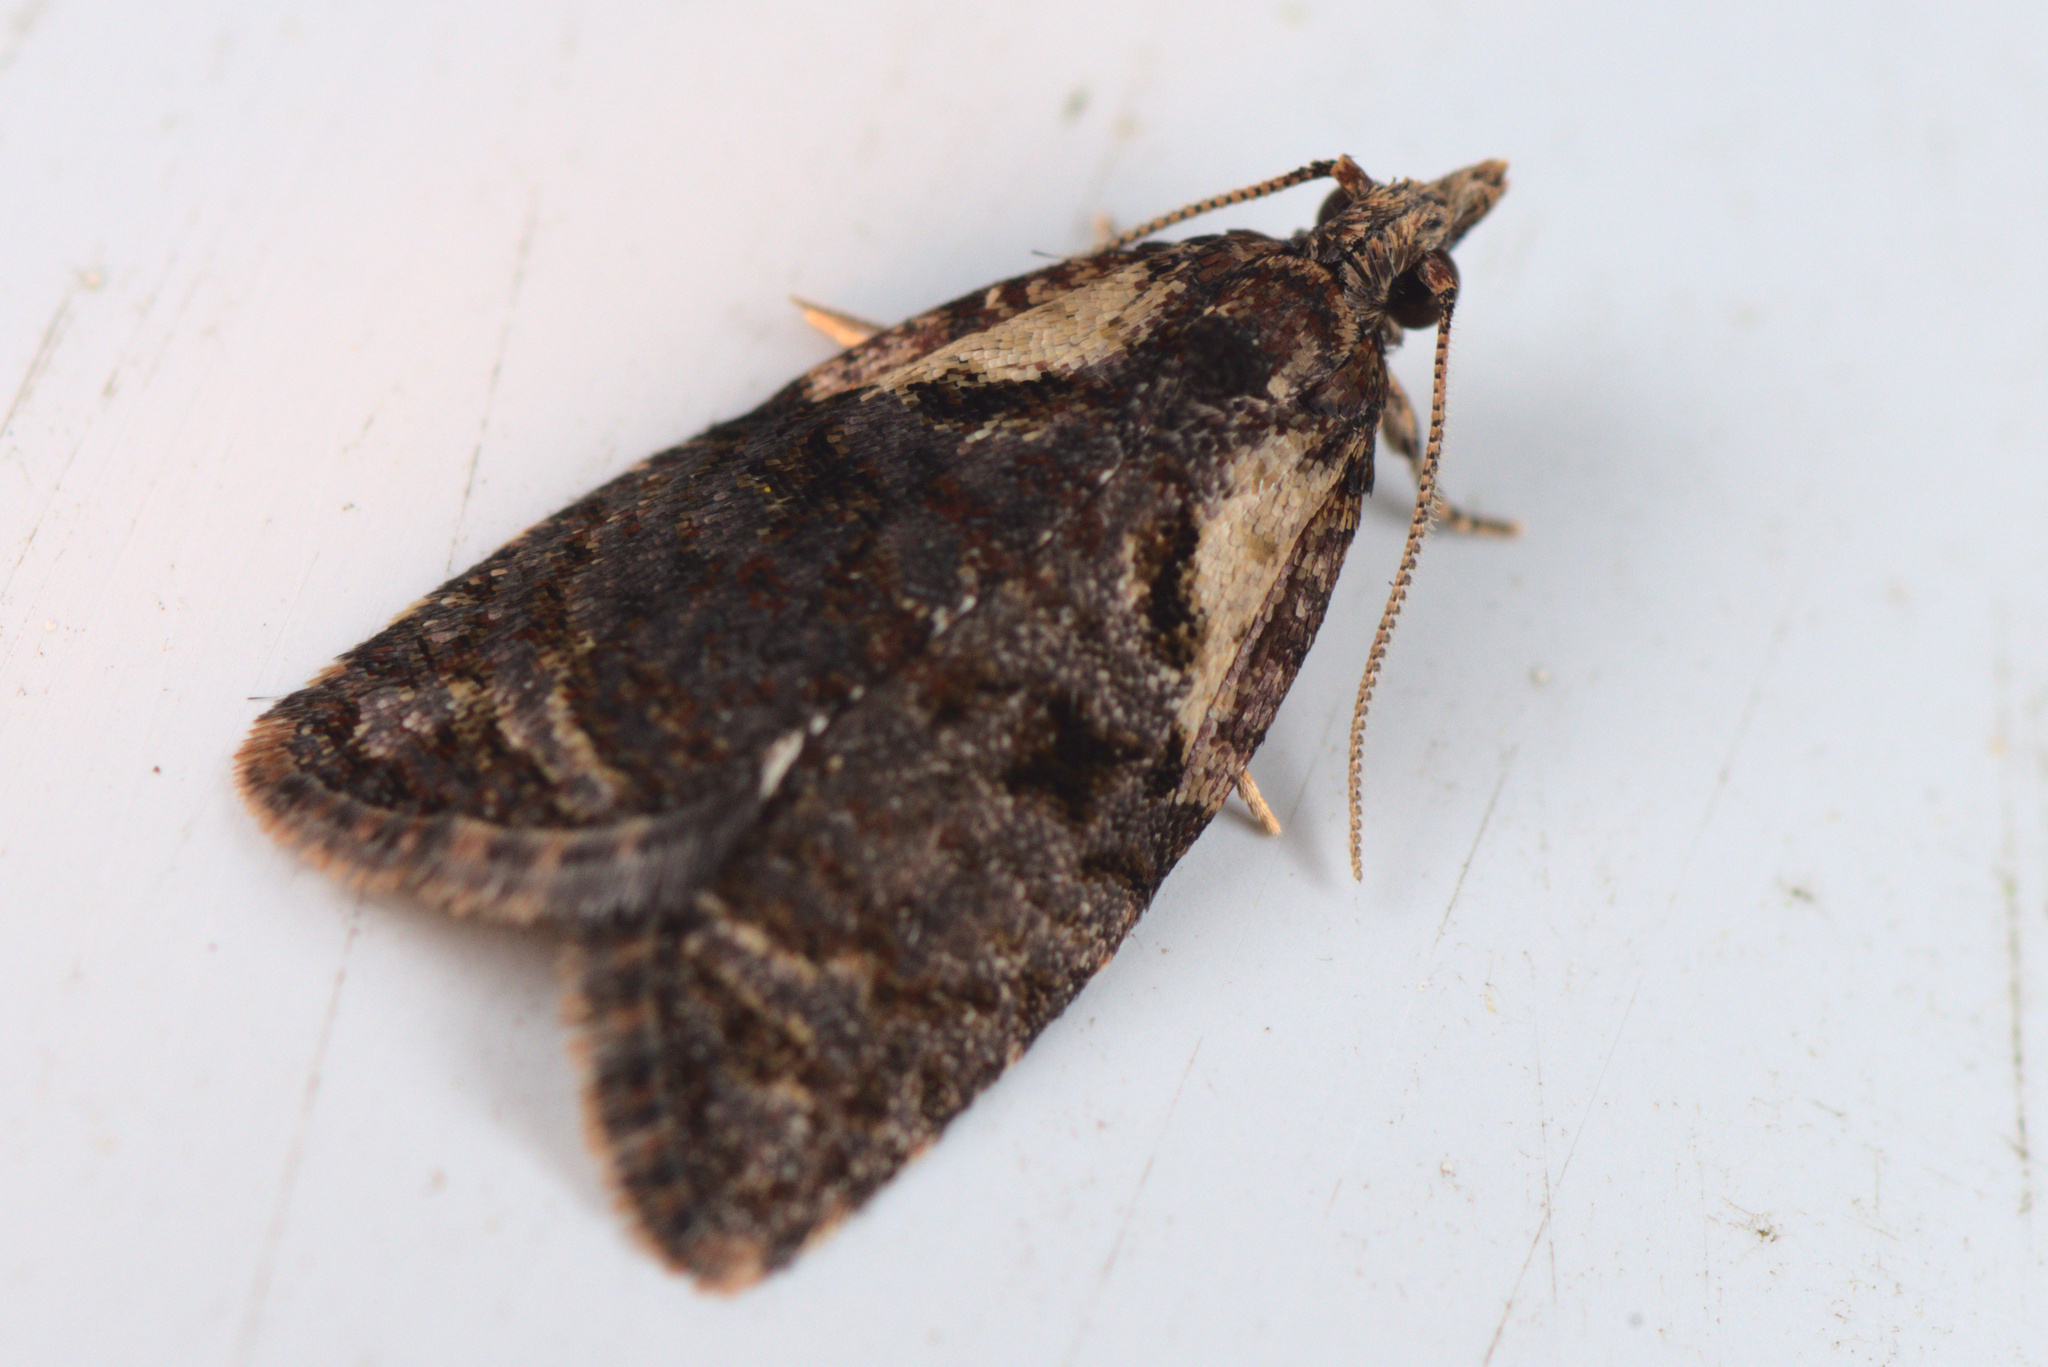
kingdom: Animalia
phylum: Arthropoda
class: Insecta
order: Lepidoptera
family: Tortricidae
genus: Capua
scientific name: Capua intractana
